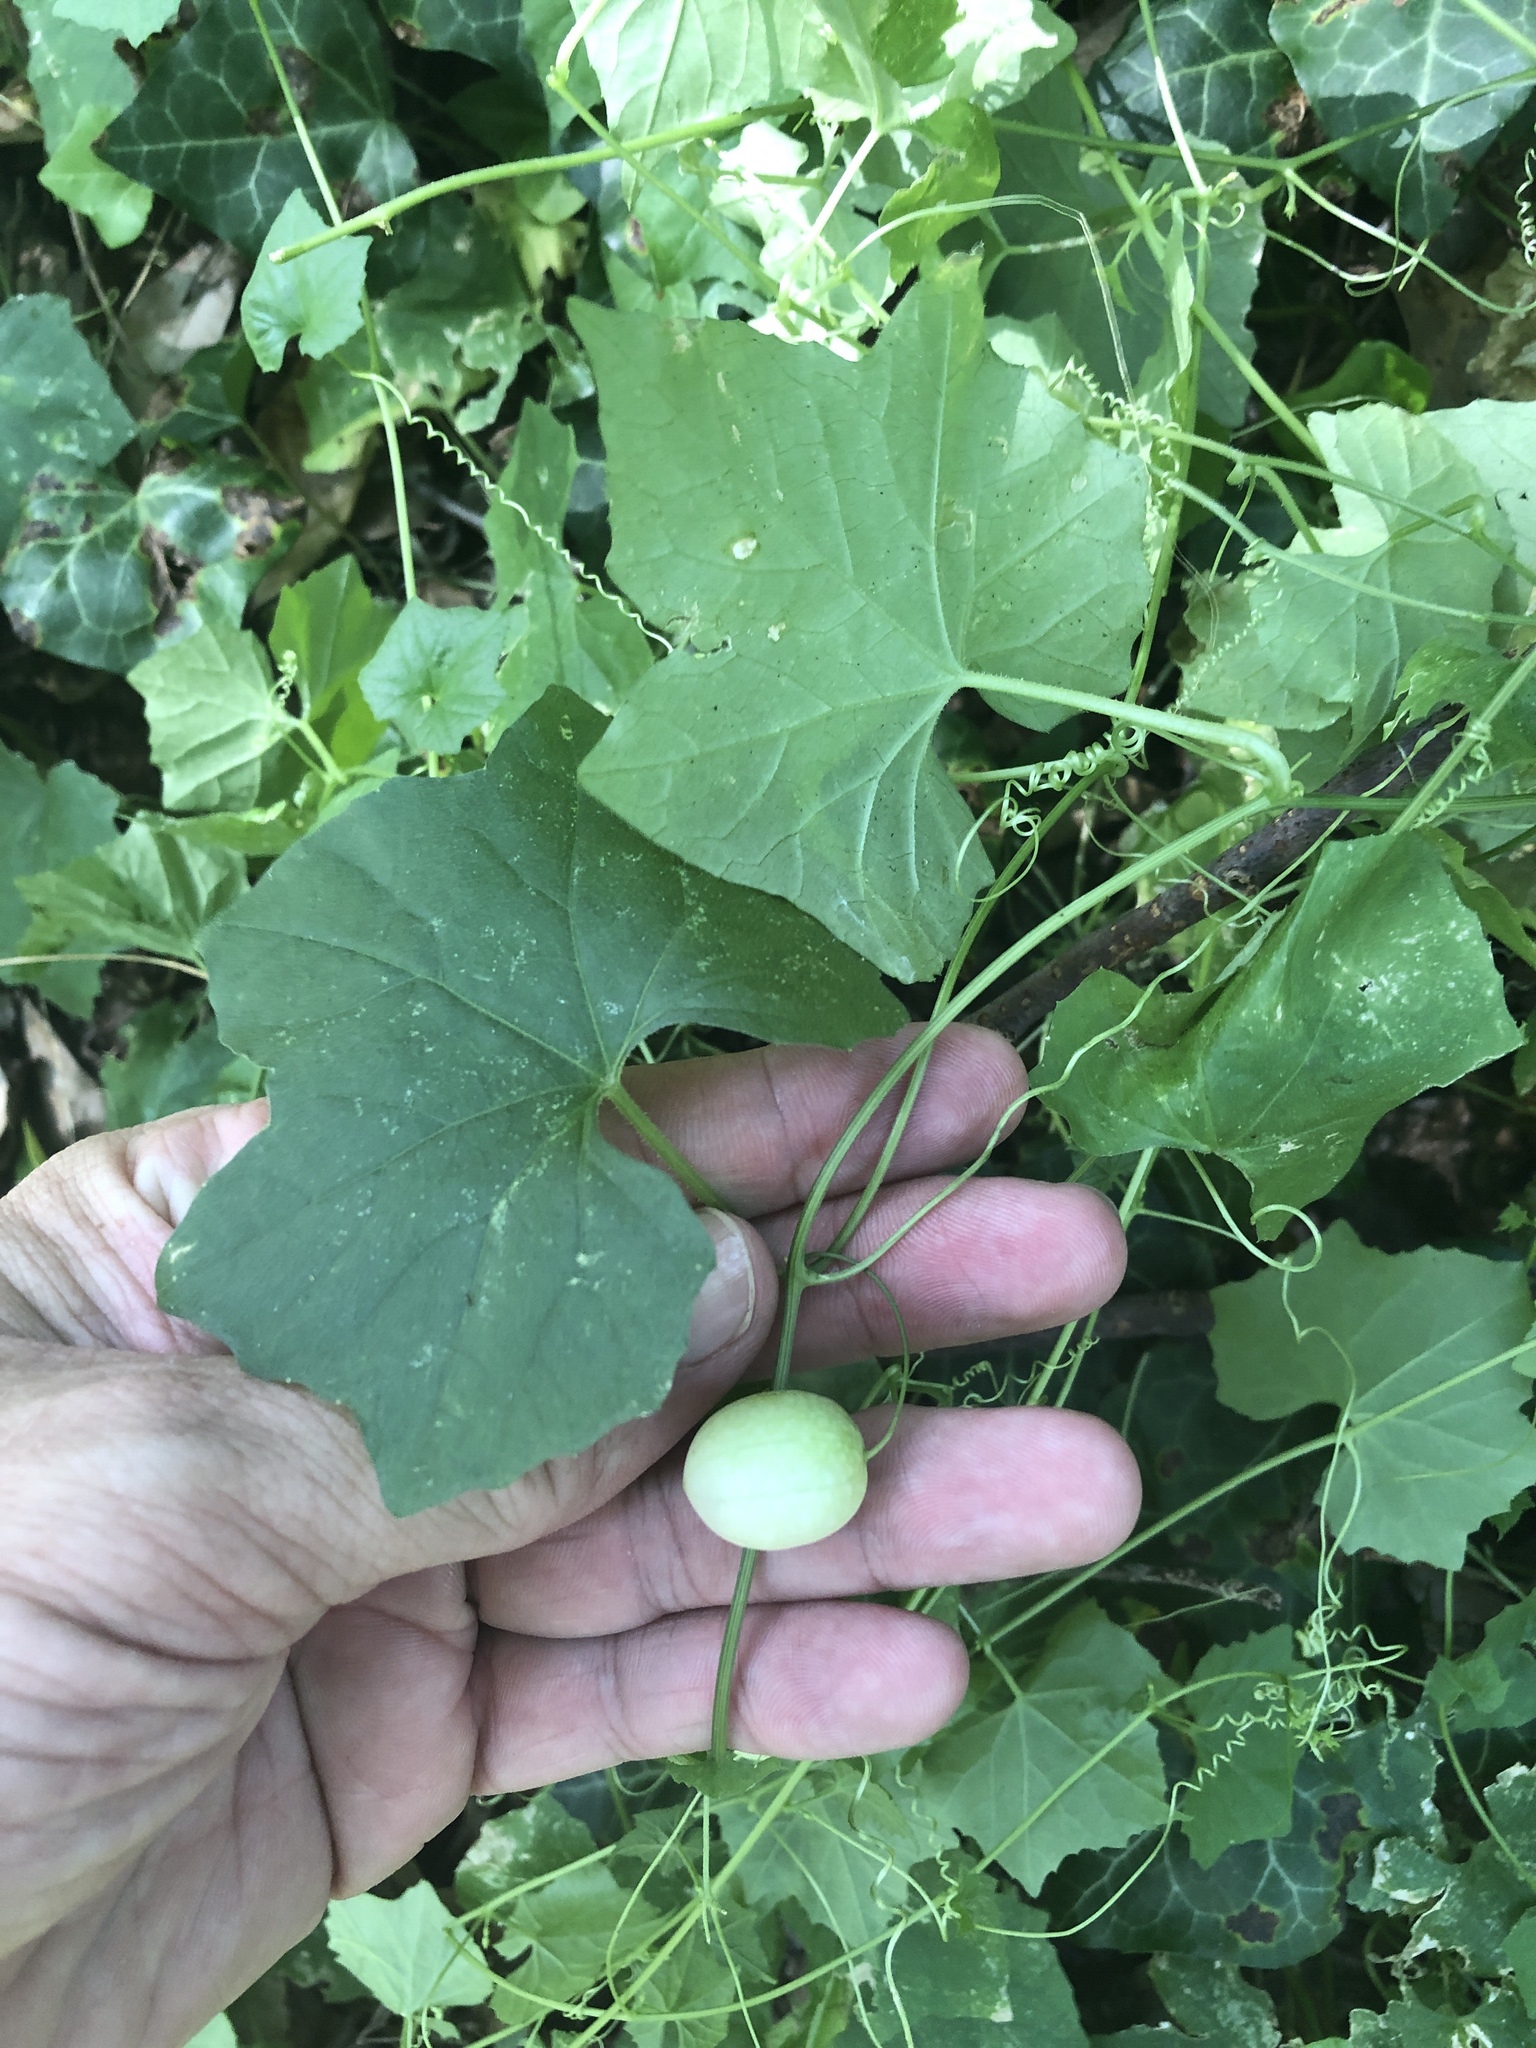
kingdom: Plantae
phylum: Tracheophyta
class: Magnoliopsida
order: Cucurbitales
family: Cucurbitaceae
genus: Melothria
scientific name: Melothria pendula
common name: Creeping-cucumber
